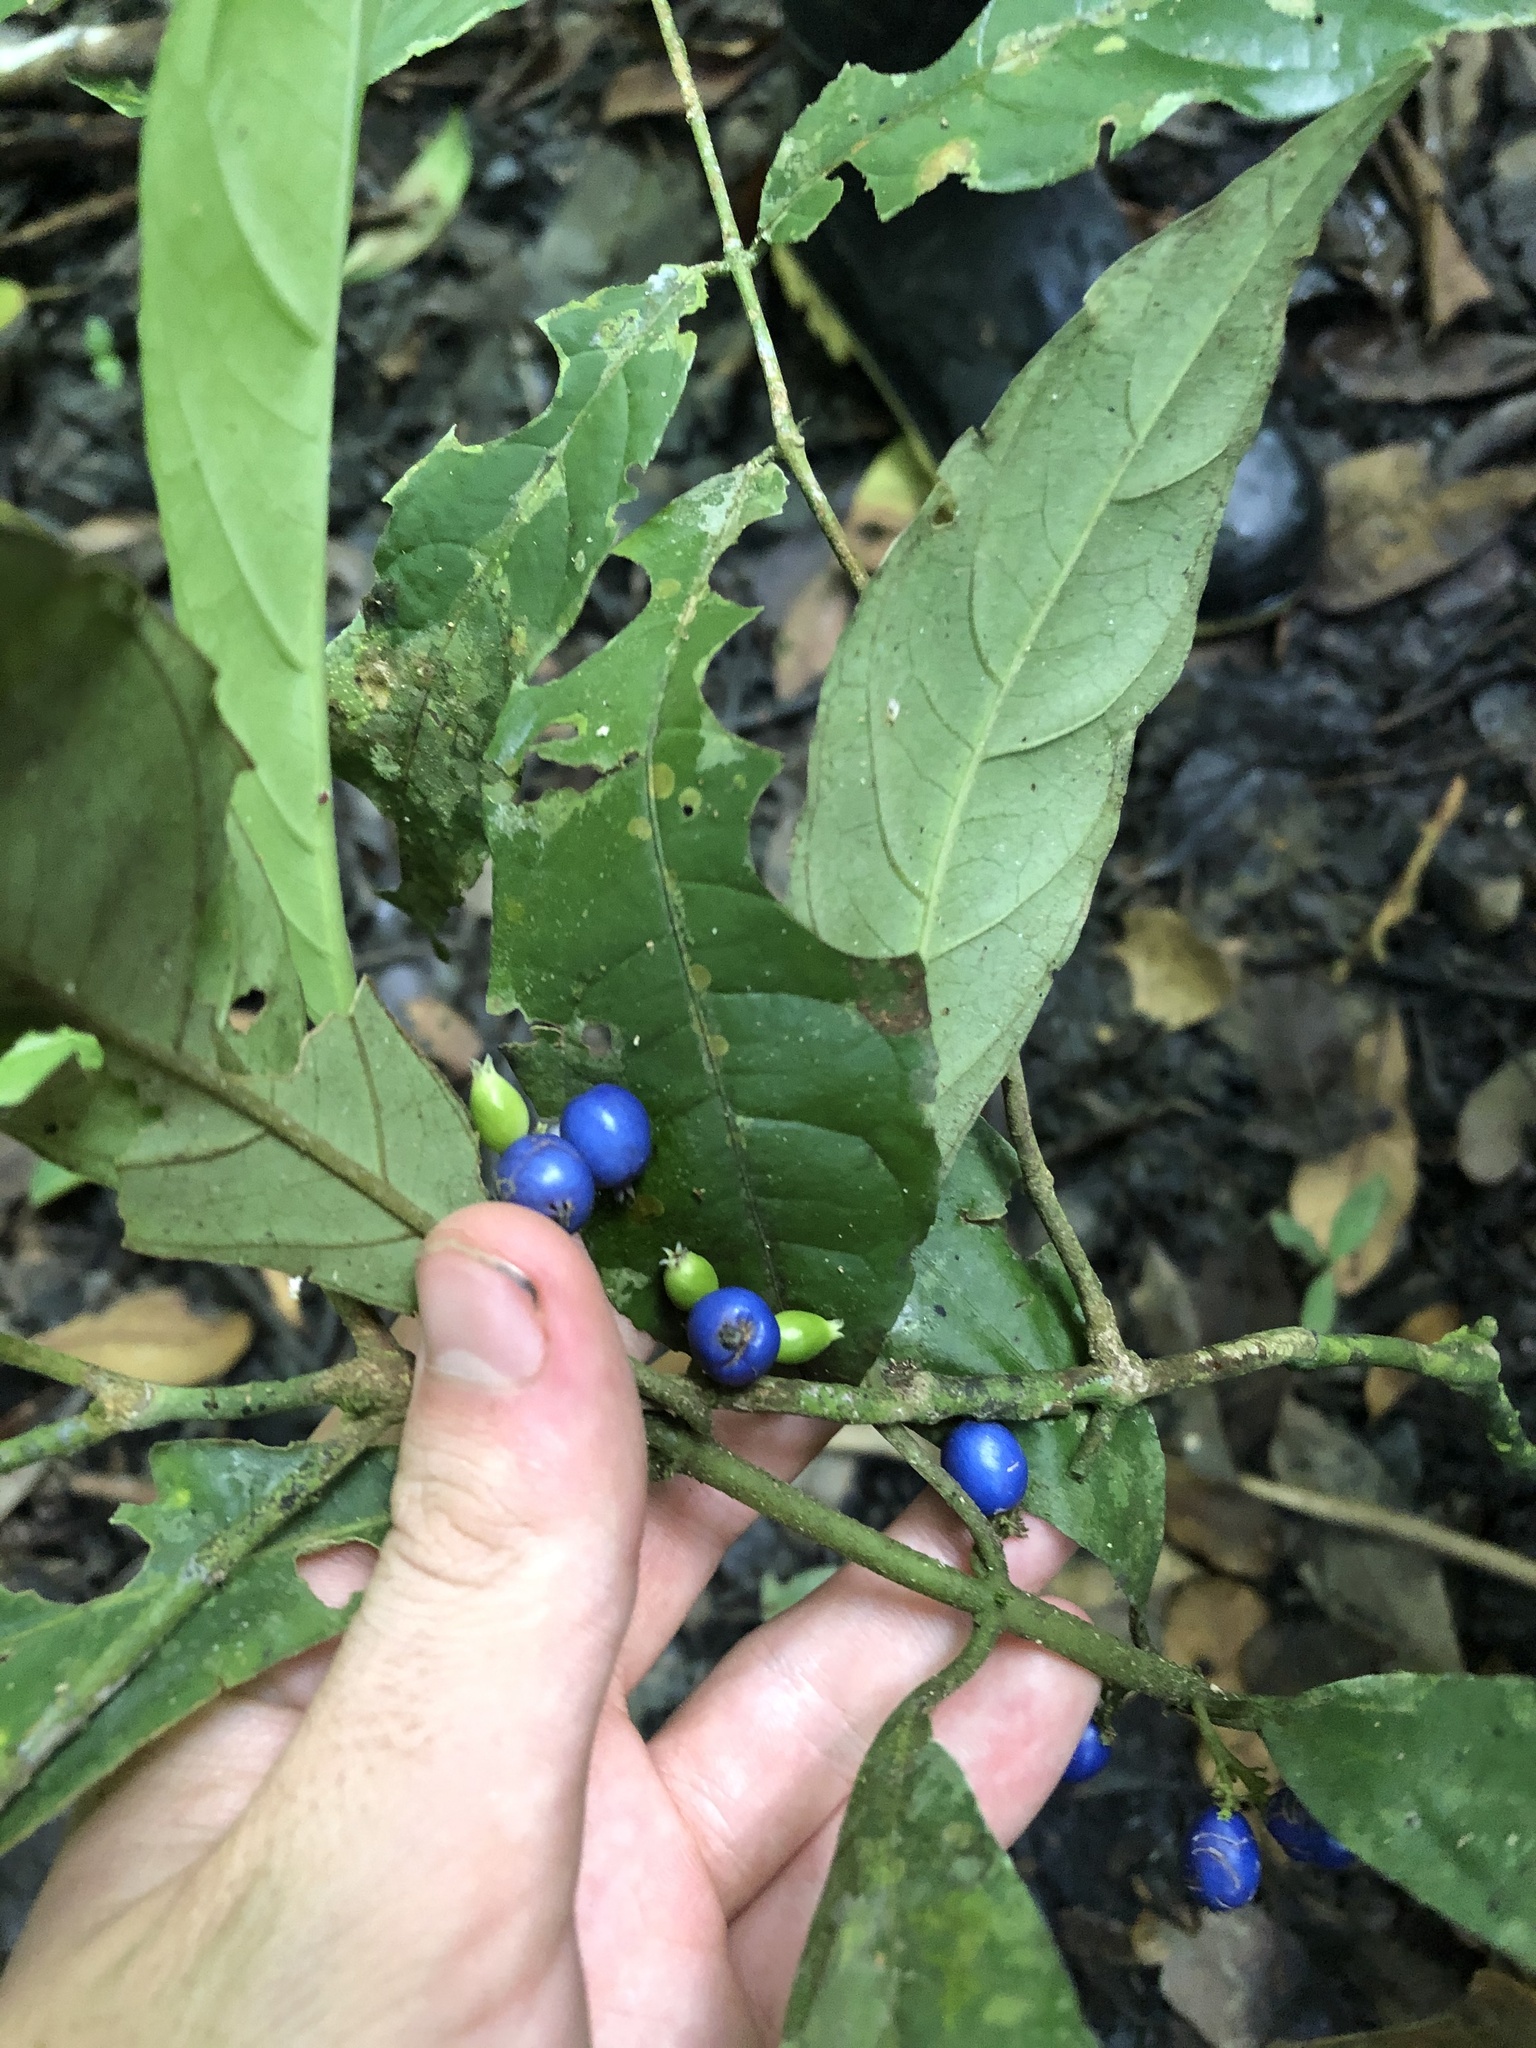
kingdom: Plantae
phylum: Tracheophyta
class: Magnoliopsida
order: Gentianales
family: Rubiaceae
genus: Ronabea
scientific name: Ronabea emetica
